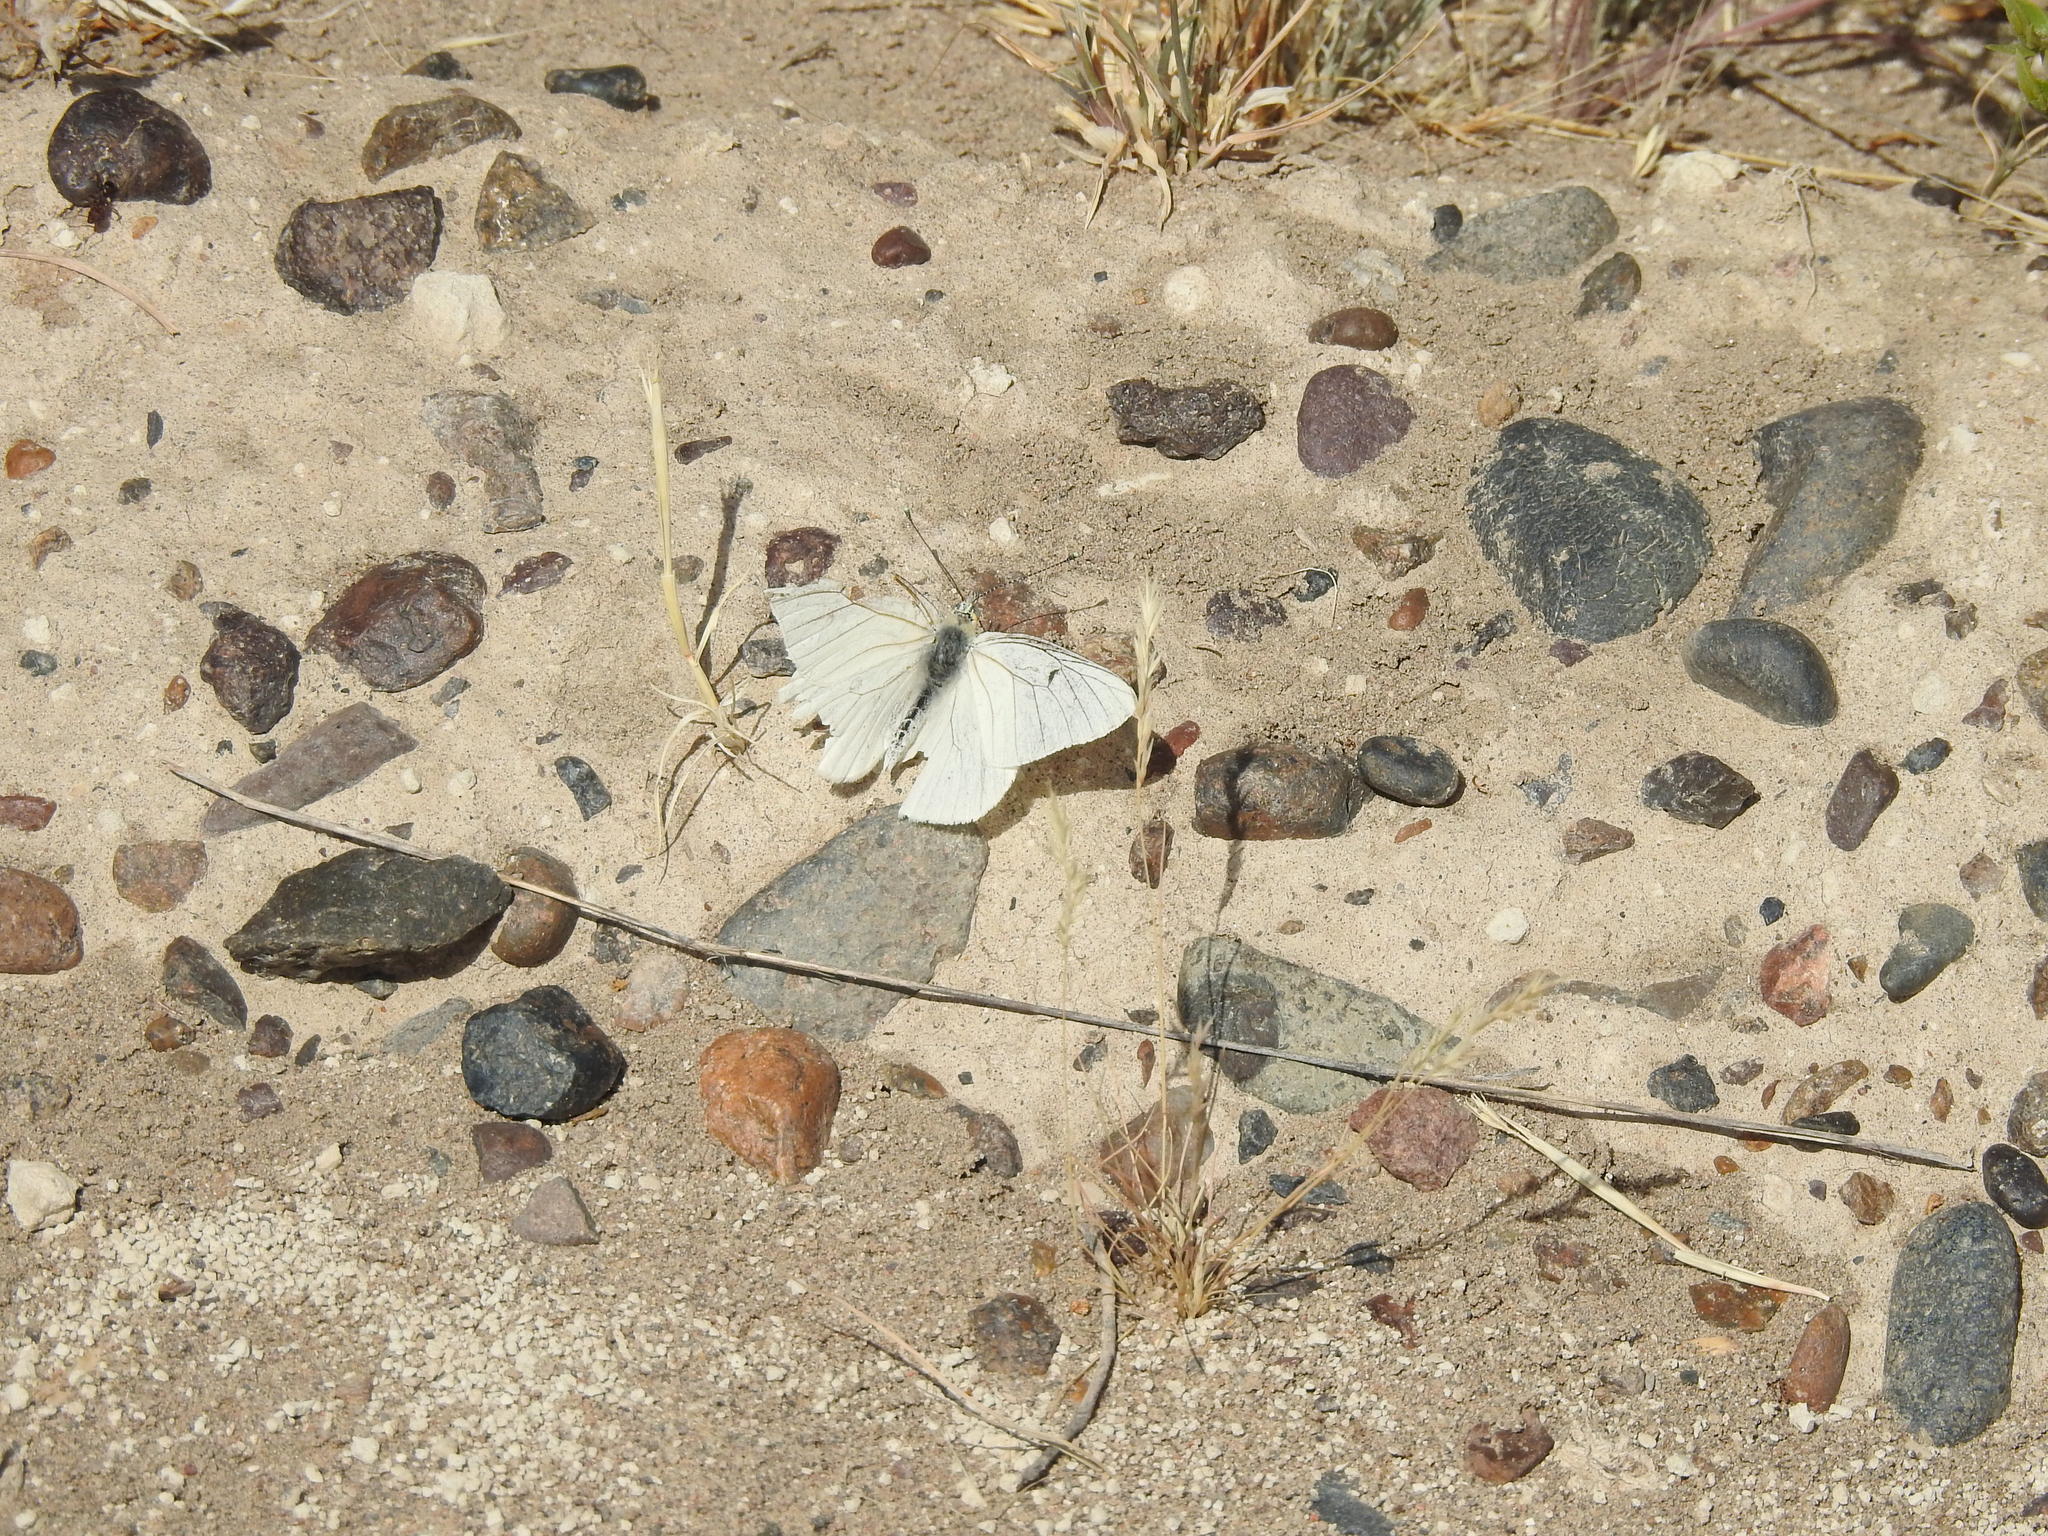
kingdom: Animalia
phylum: Arthropoda
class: Insecta
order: Lepidoptera
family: Pieridae
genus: Tatochila
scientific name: Tatochila mercedis
